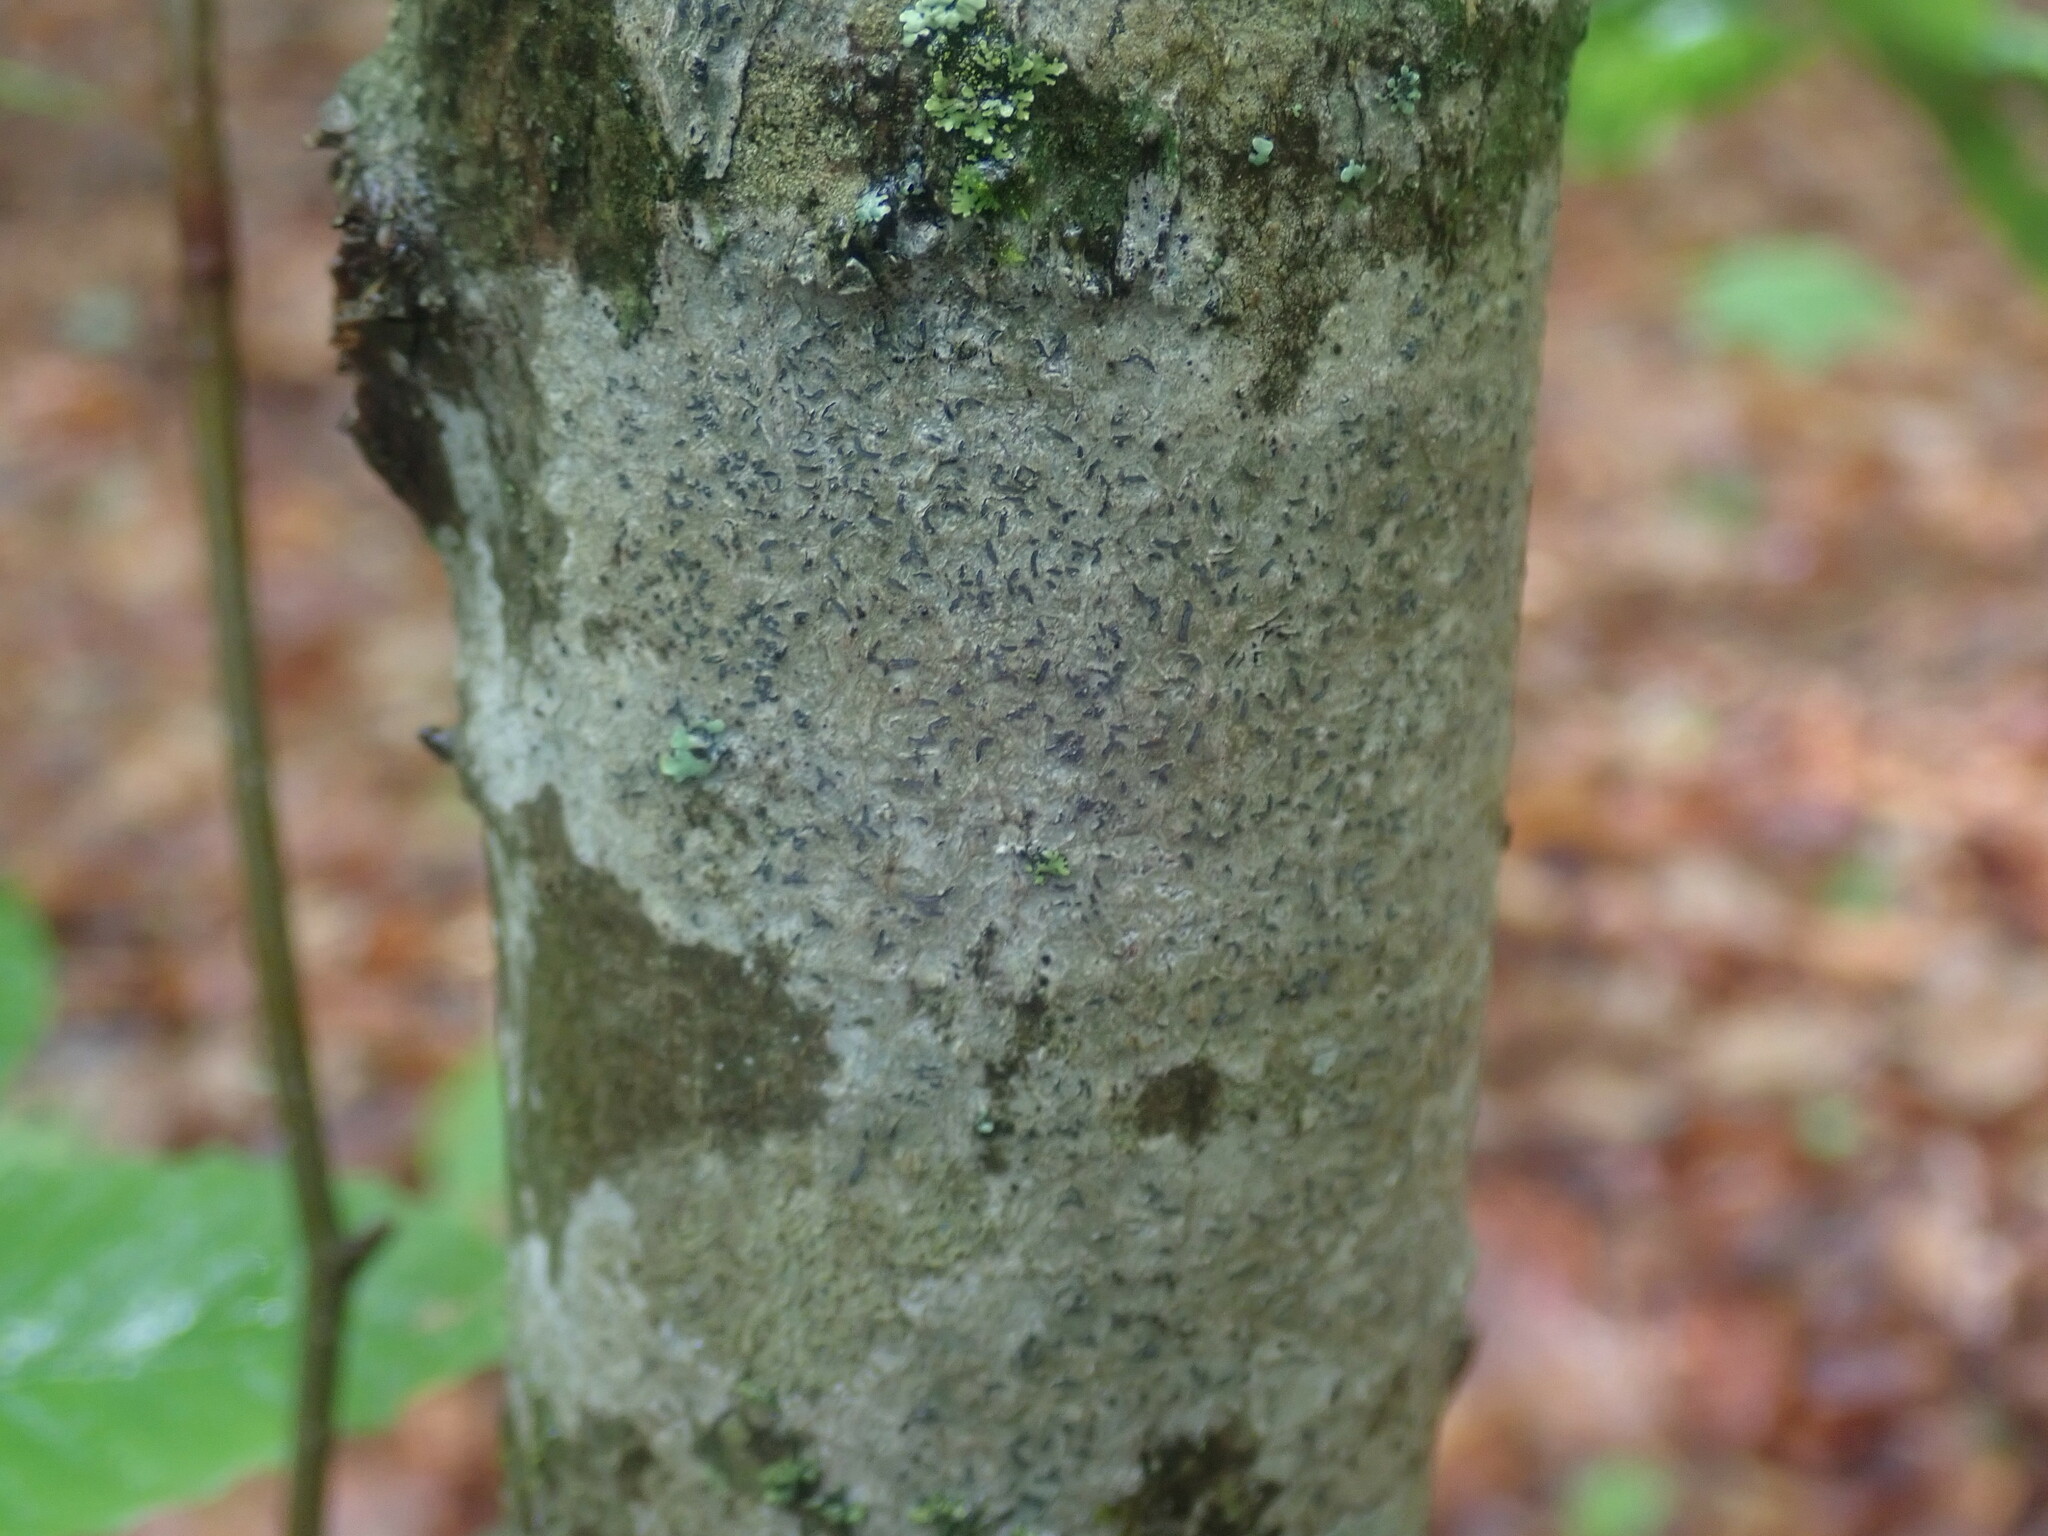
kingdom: Fungi
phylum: Ascomycota
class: Lecanoromycetes
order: Ostropales
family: Graphidaceae
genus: Graphis
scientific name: Graphis scripta
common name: Script lichen
